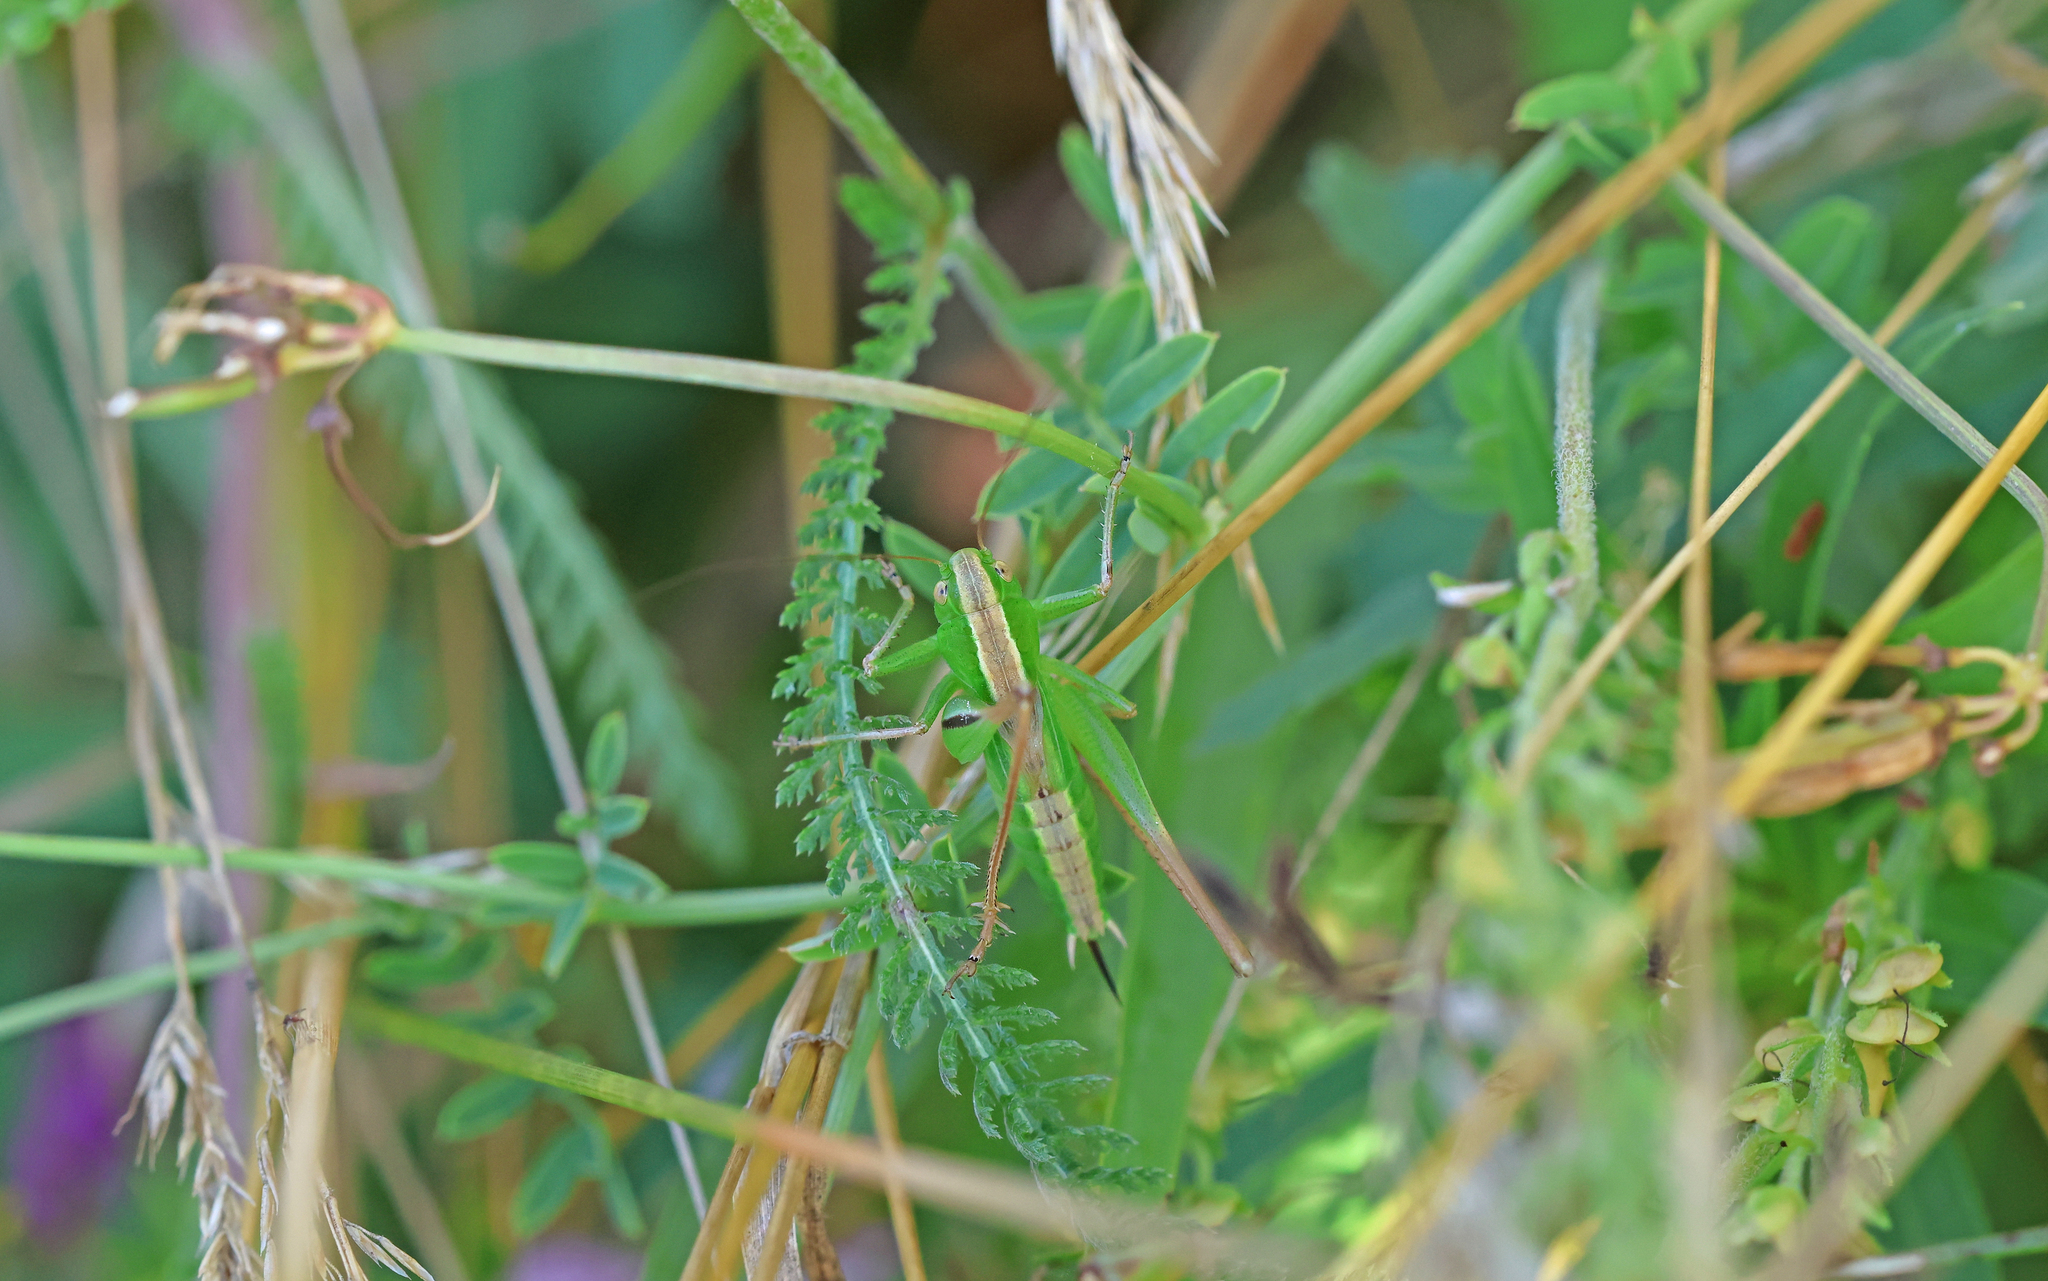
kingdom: Animalia
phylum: Arthropoda
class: Insecta
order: Orthoptera
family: Tettigoniidae
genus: Bicolorana
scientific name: Bicolorana bicolor
